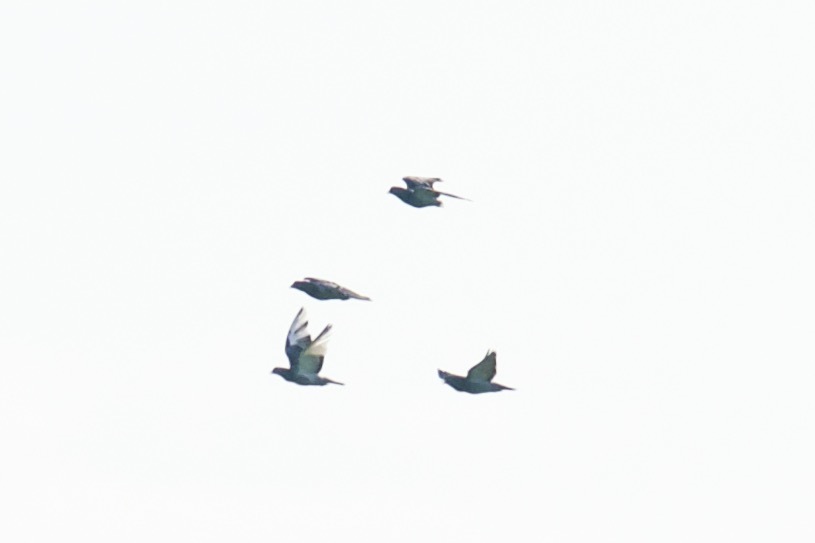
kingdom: Animalia
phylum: Chordata
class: Aves
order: Columbiformes
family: Columbidae
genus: Columba
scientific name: Columba livia
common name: Rock pigeon
